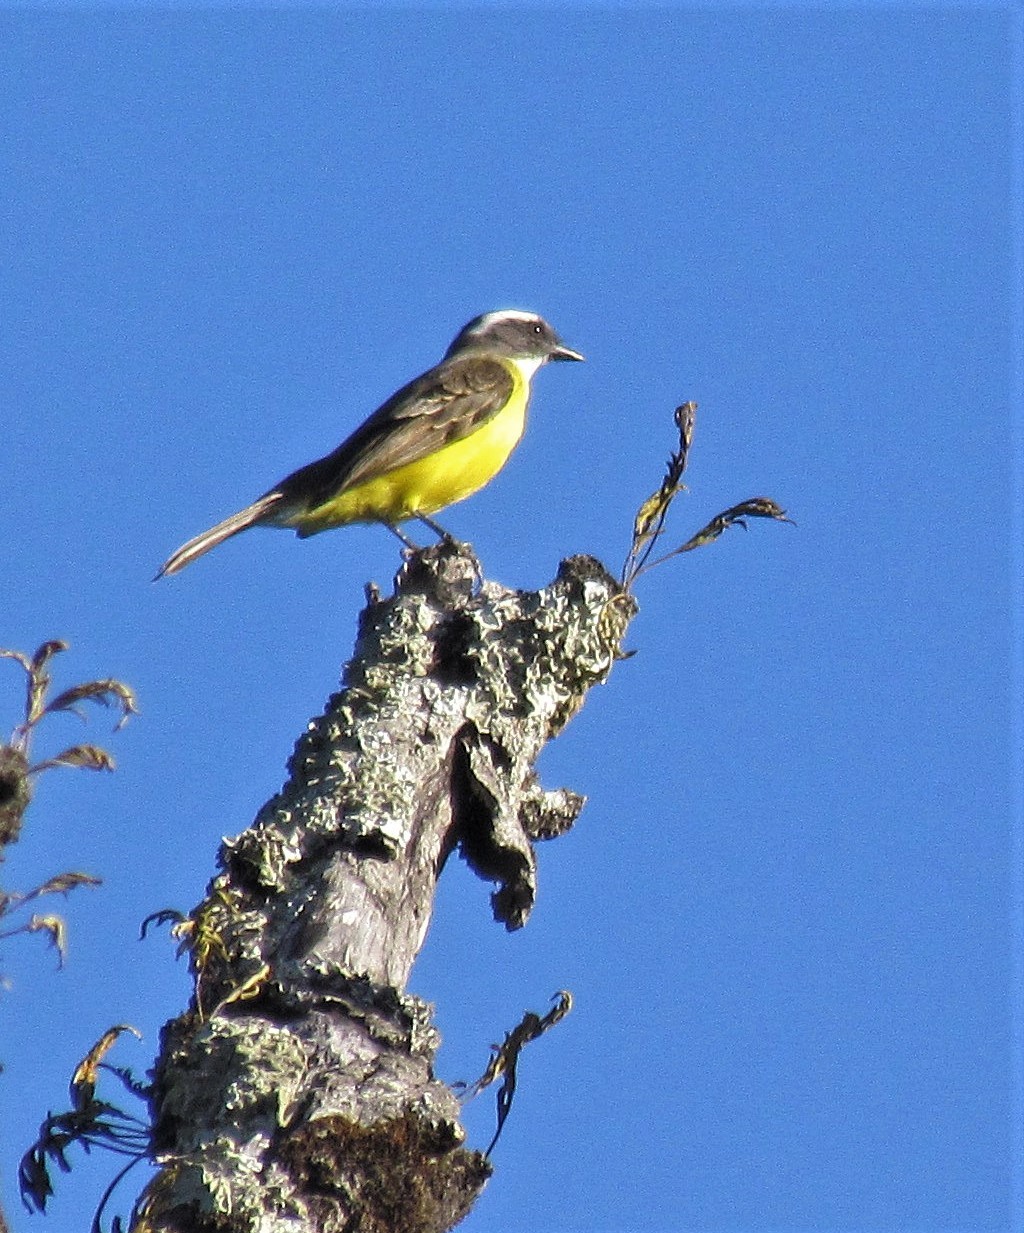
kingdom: Animalia
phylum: Chordata
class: Aves
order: Passeriformes
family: Tyrannidae
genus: Myiozetetes
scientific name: Myiozetetes similis
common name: Social flycatcher
